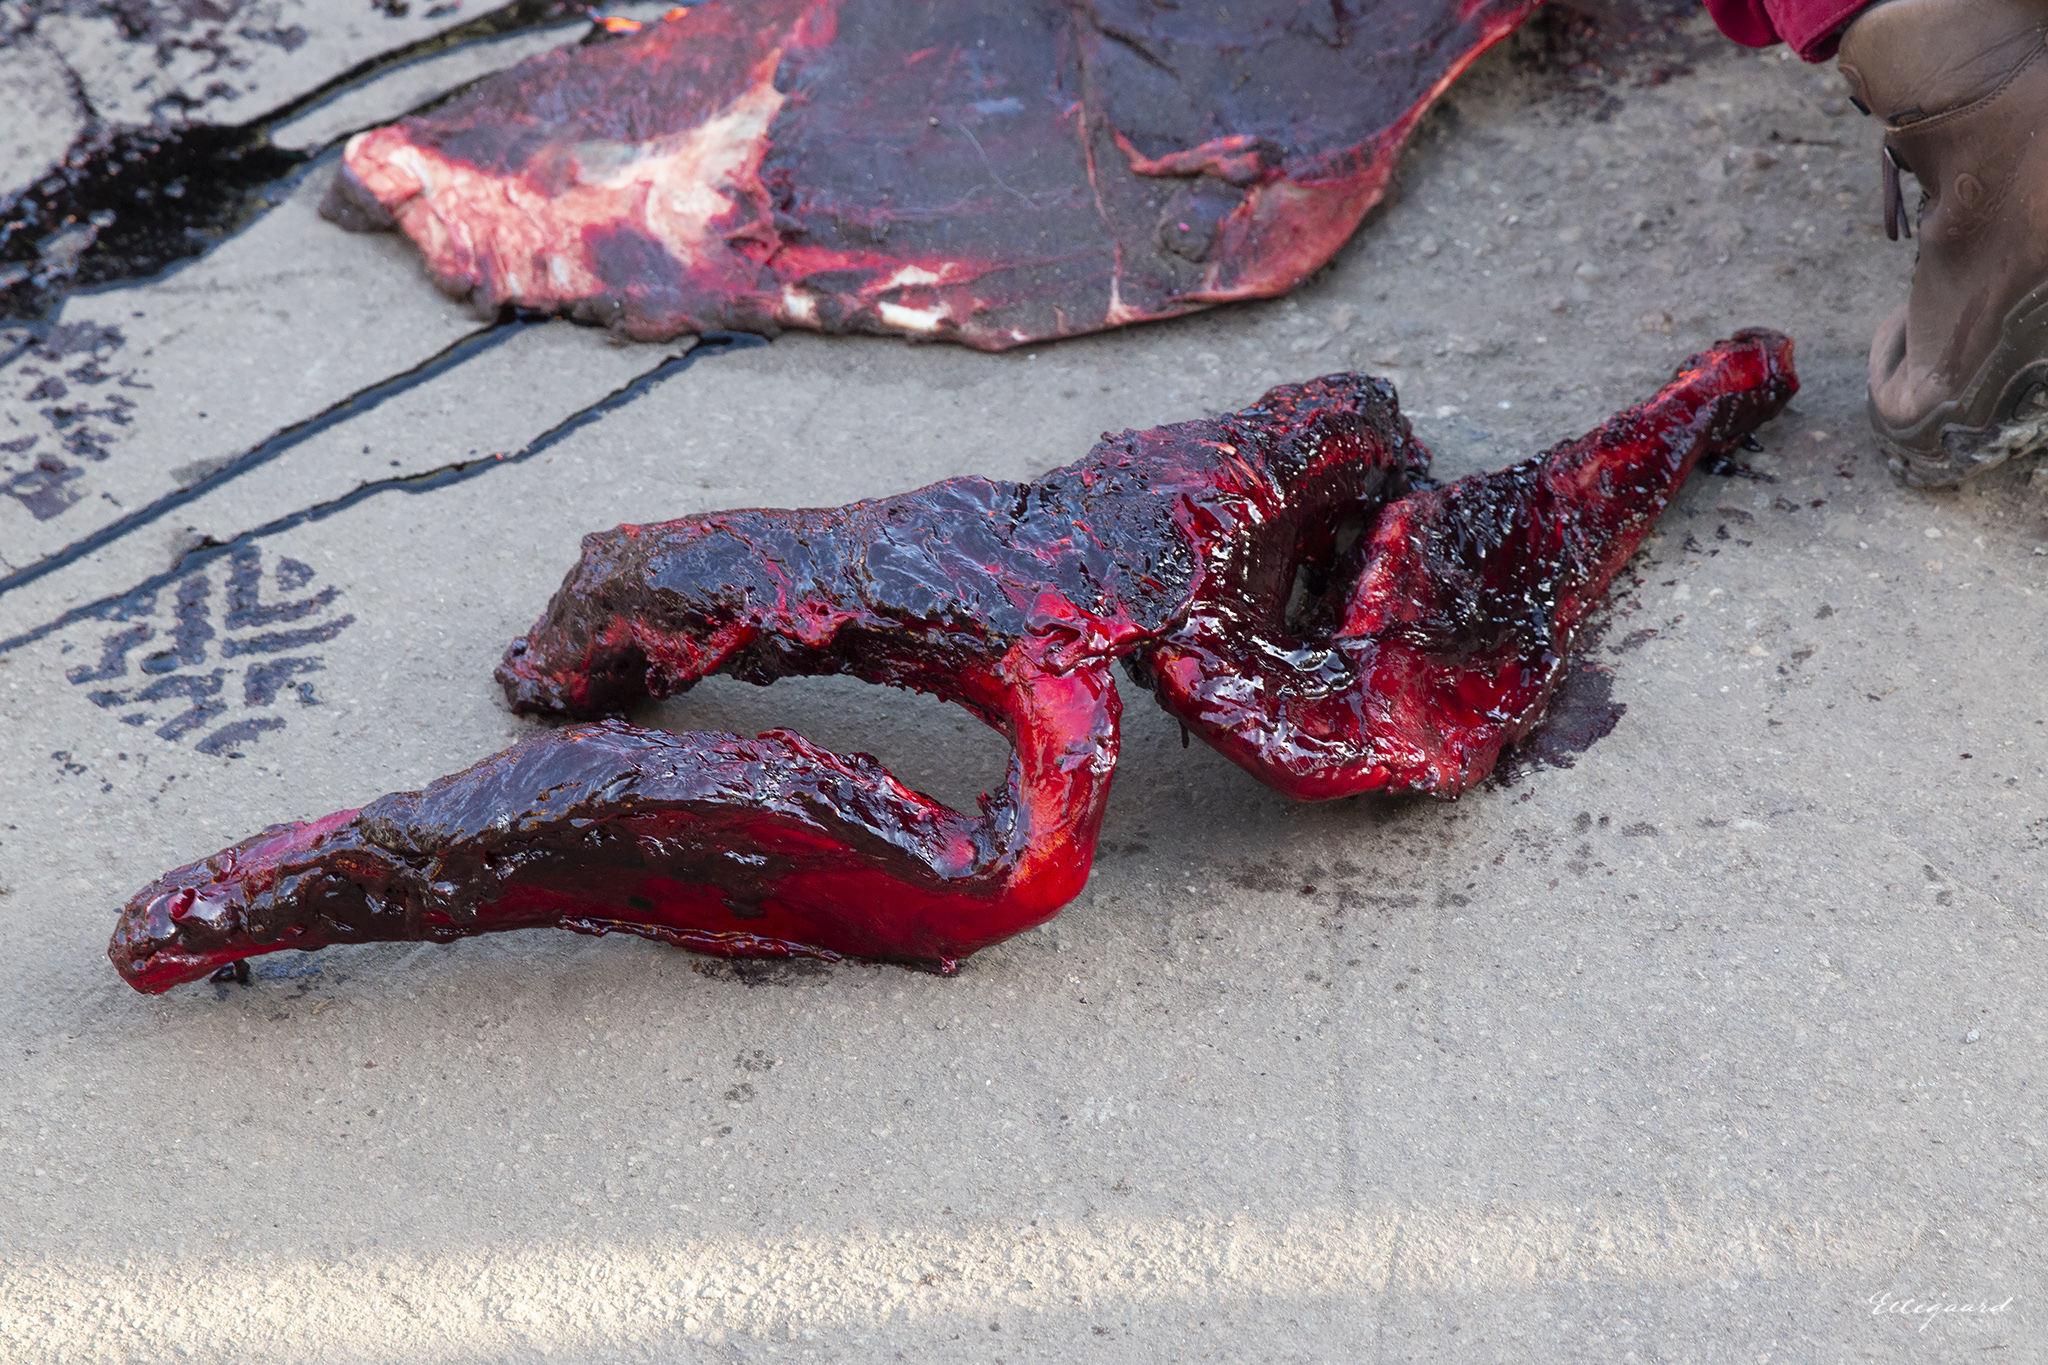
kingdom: Animalia
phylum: Chordata
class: Mammalia
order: Cetacea
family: Hyperoodontidae
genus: Hyperoodon
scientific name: Hyperoodon ampullatus
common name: Northern bottlenose whale
